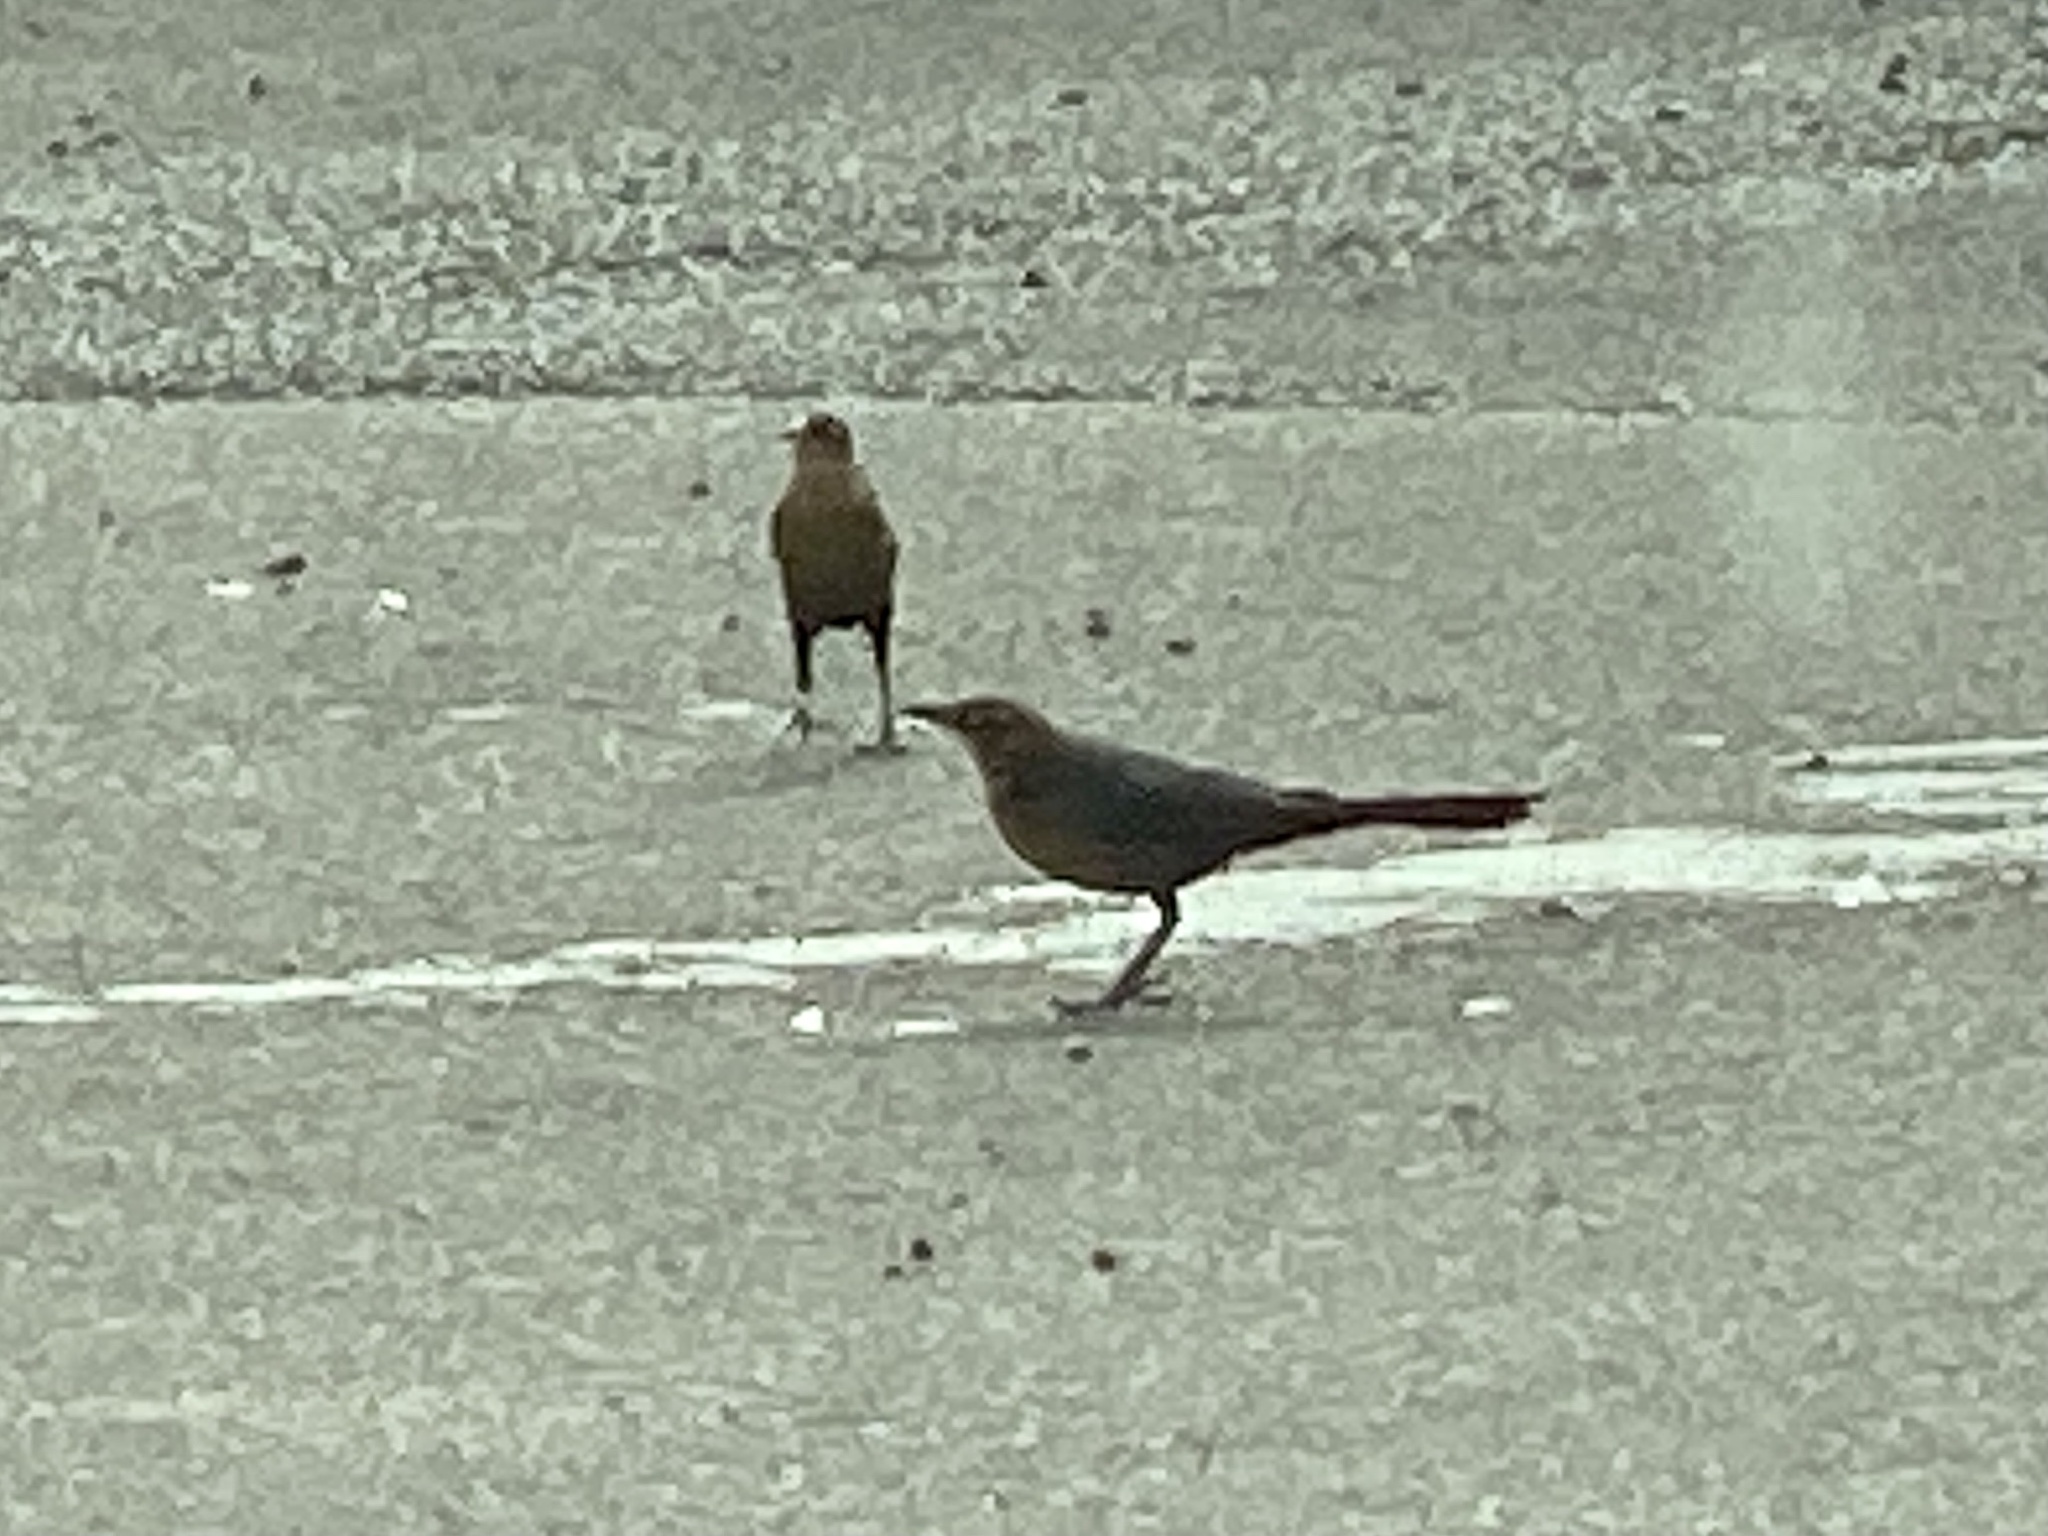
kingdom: Animalia
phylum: Chordata
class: Aves
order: Passeriformes
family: Icteridae
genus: Quiscalus
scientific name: Quiscalus mexicanus
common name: Great-tailed grackle
